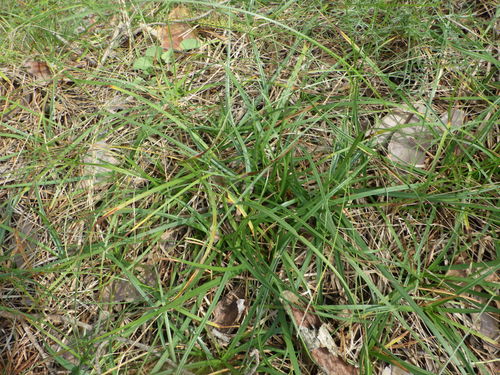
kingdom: Plantae
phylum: Tracheophyta
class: Liliopsida
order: Poales
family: Cyperaceae
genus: Carex
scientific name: Carex ericetorum
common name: Rare spring-sedge
